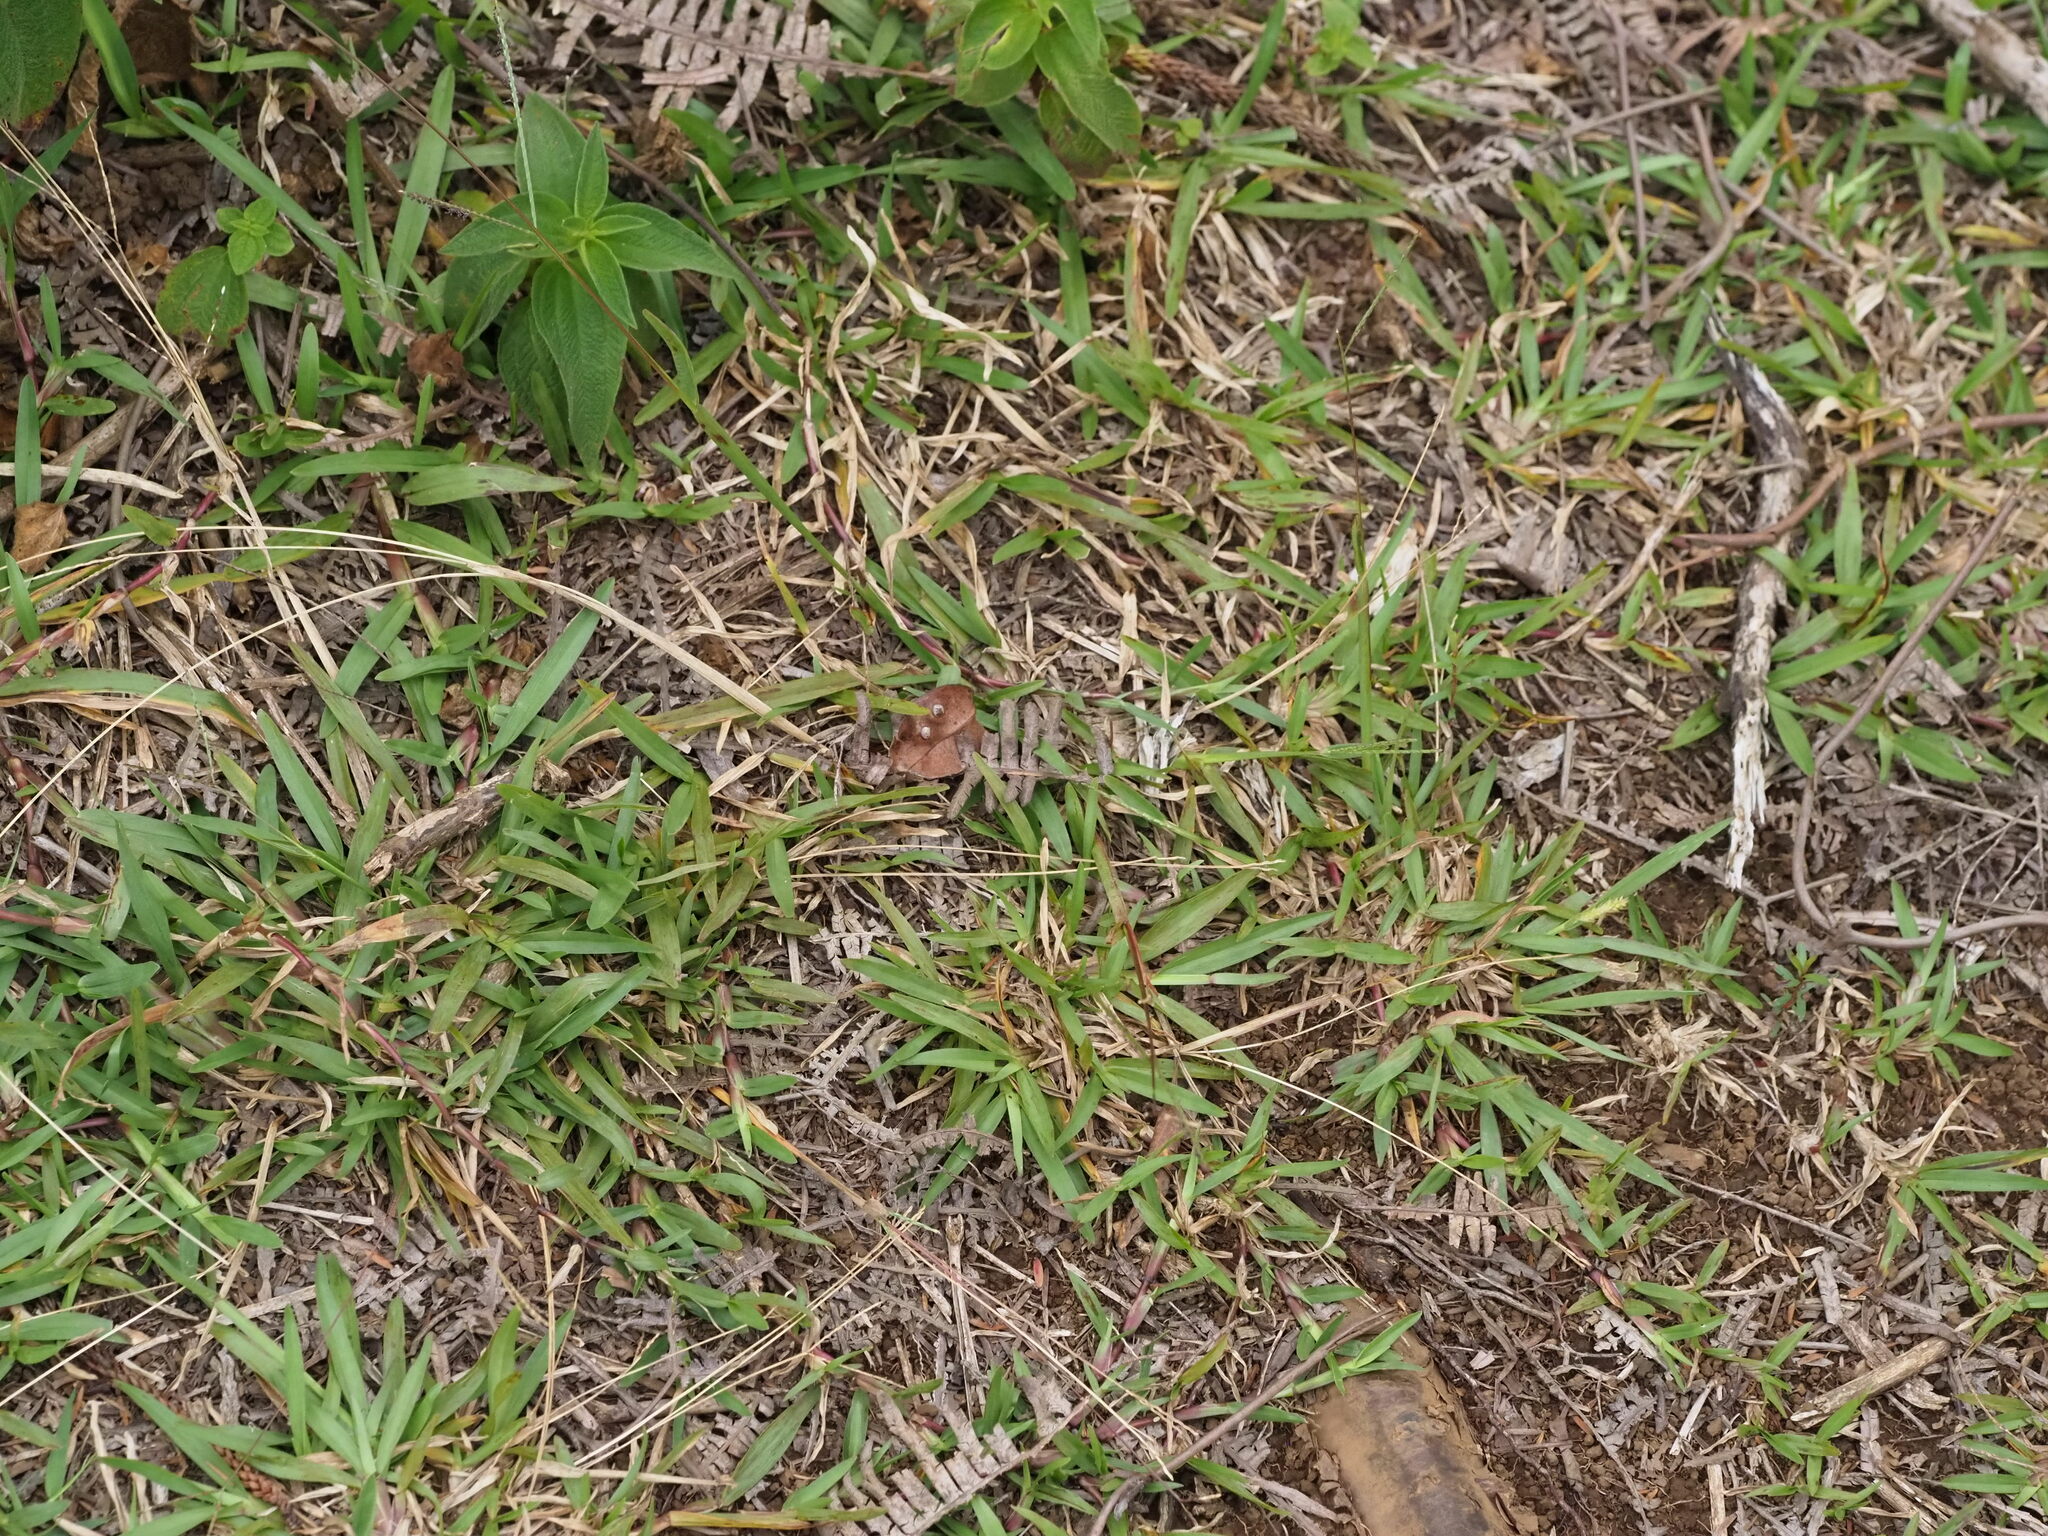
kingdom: Plantae
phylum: Tracheophyta
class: Liliopsida
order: Poales
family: Poaceae
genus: Axonopus
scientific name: Axonopus fissifolius
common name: Common carpetgrass
